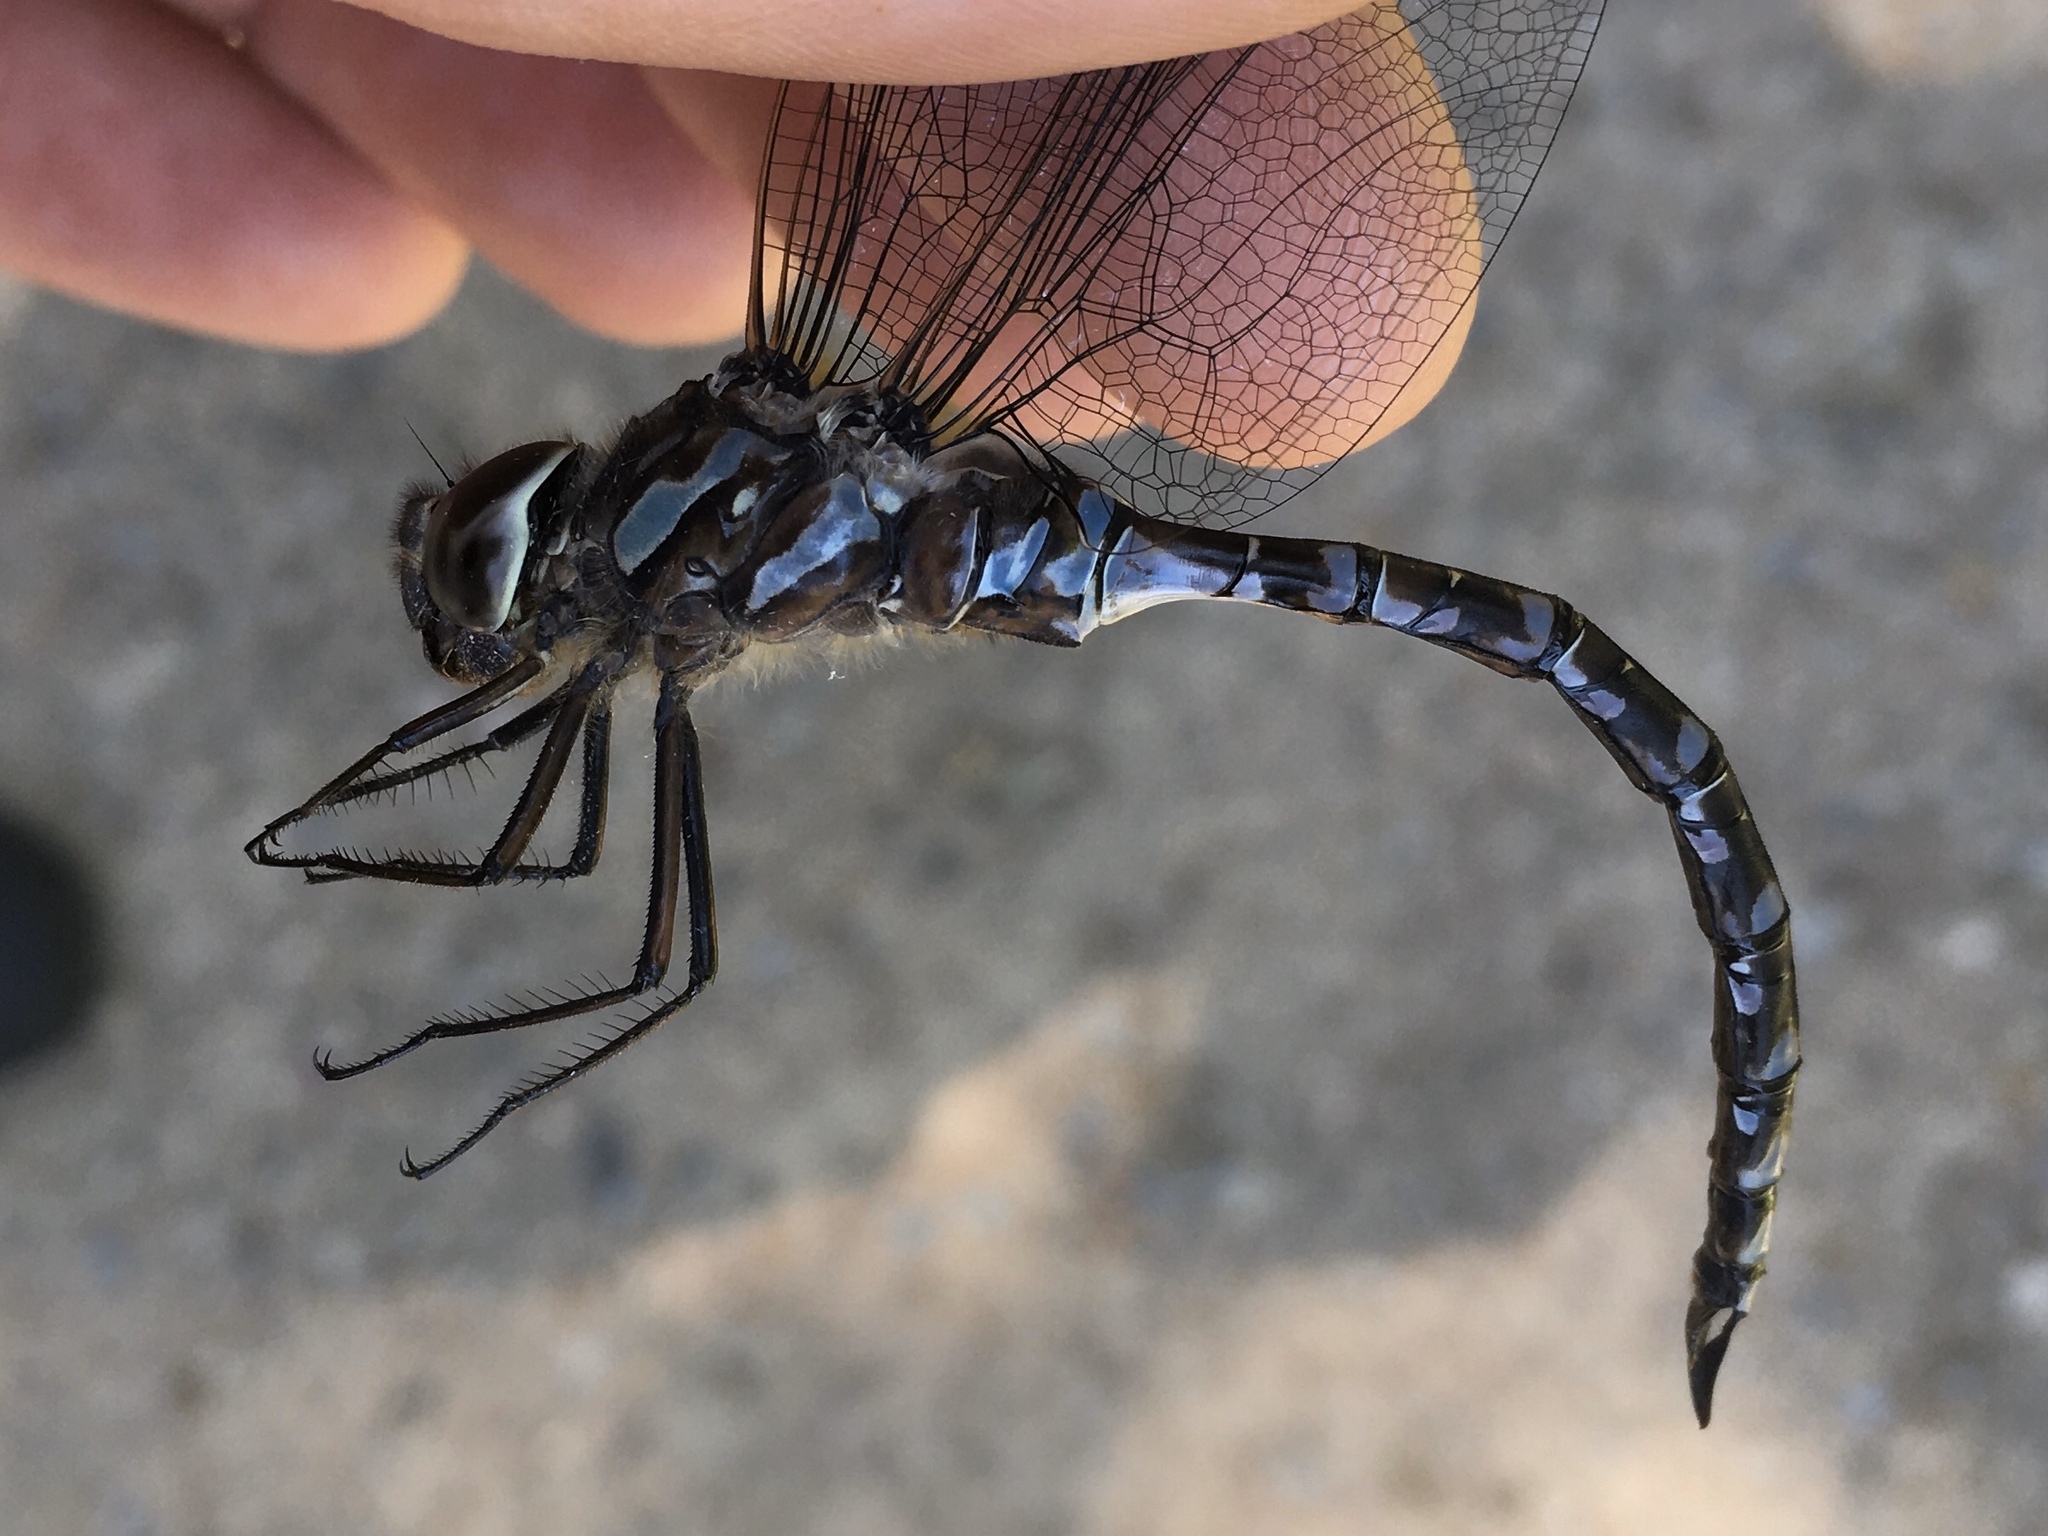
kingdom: Animalia
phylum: Arthropoda
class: Insecta
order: Odonata
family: Aeshnidae
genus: Aeshna
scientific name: Aeshna canadensis
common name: Canada darner
